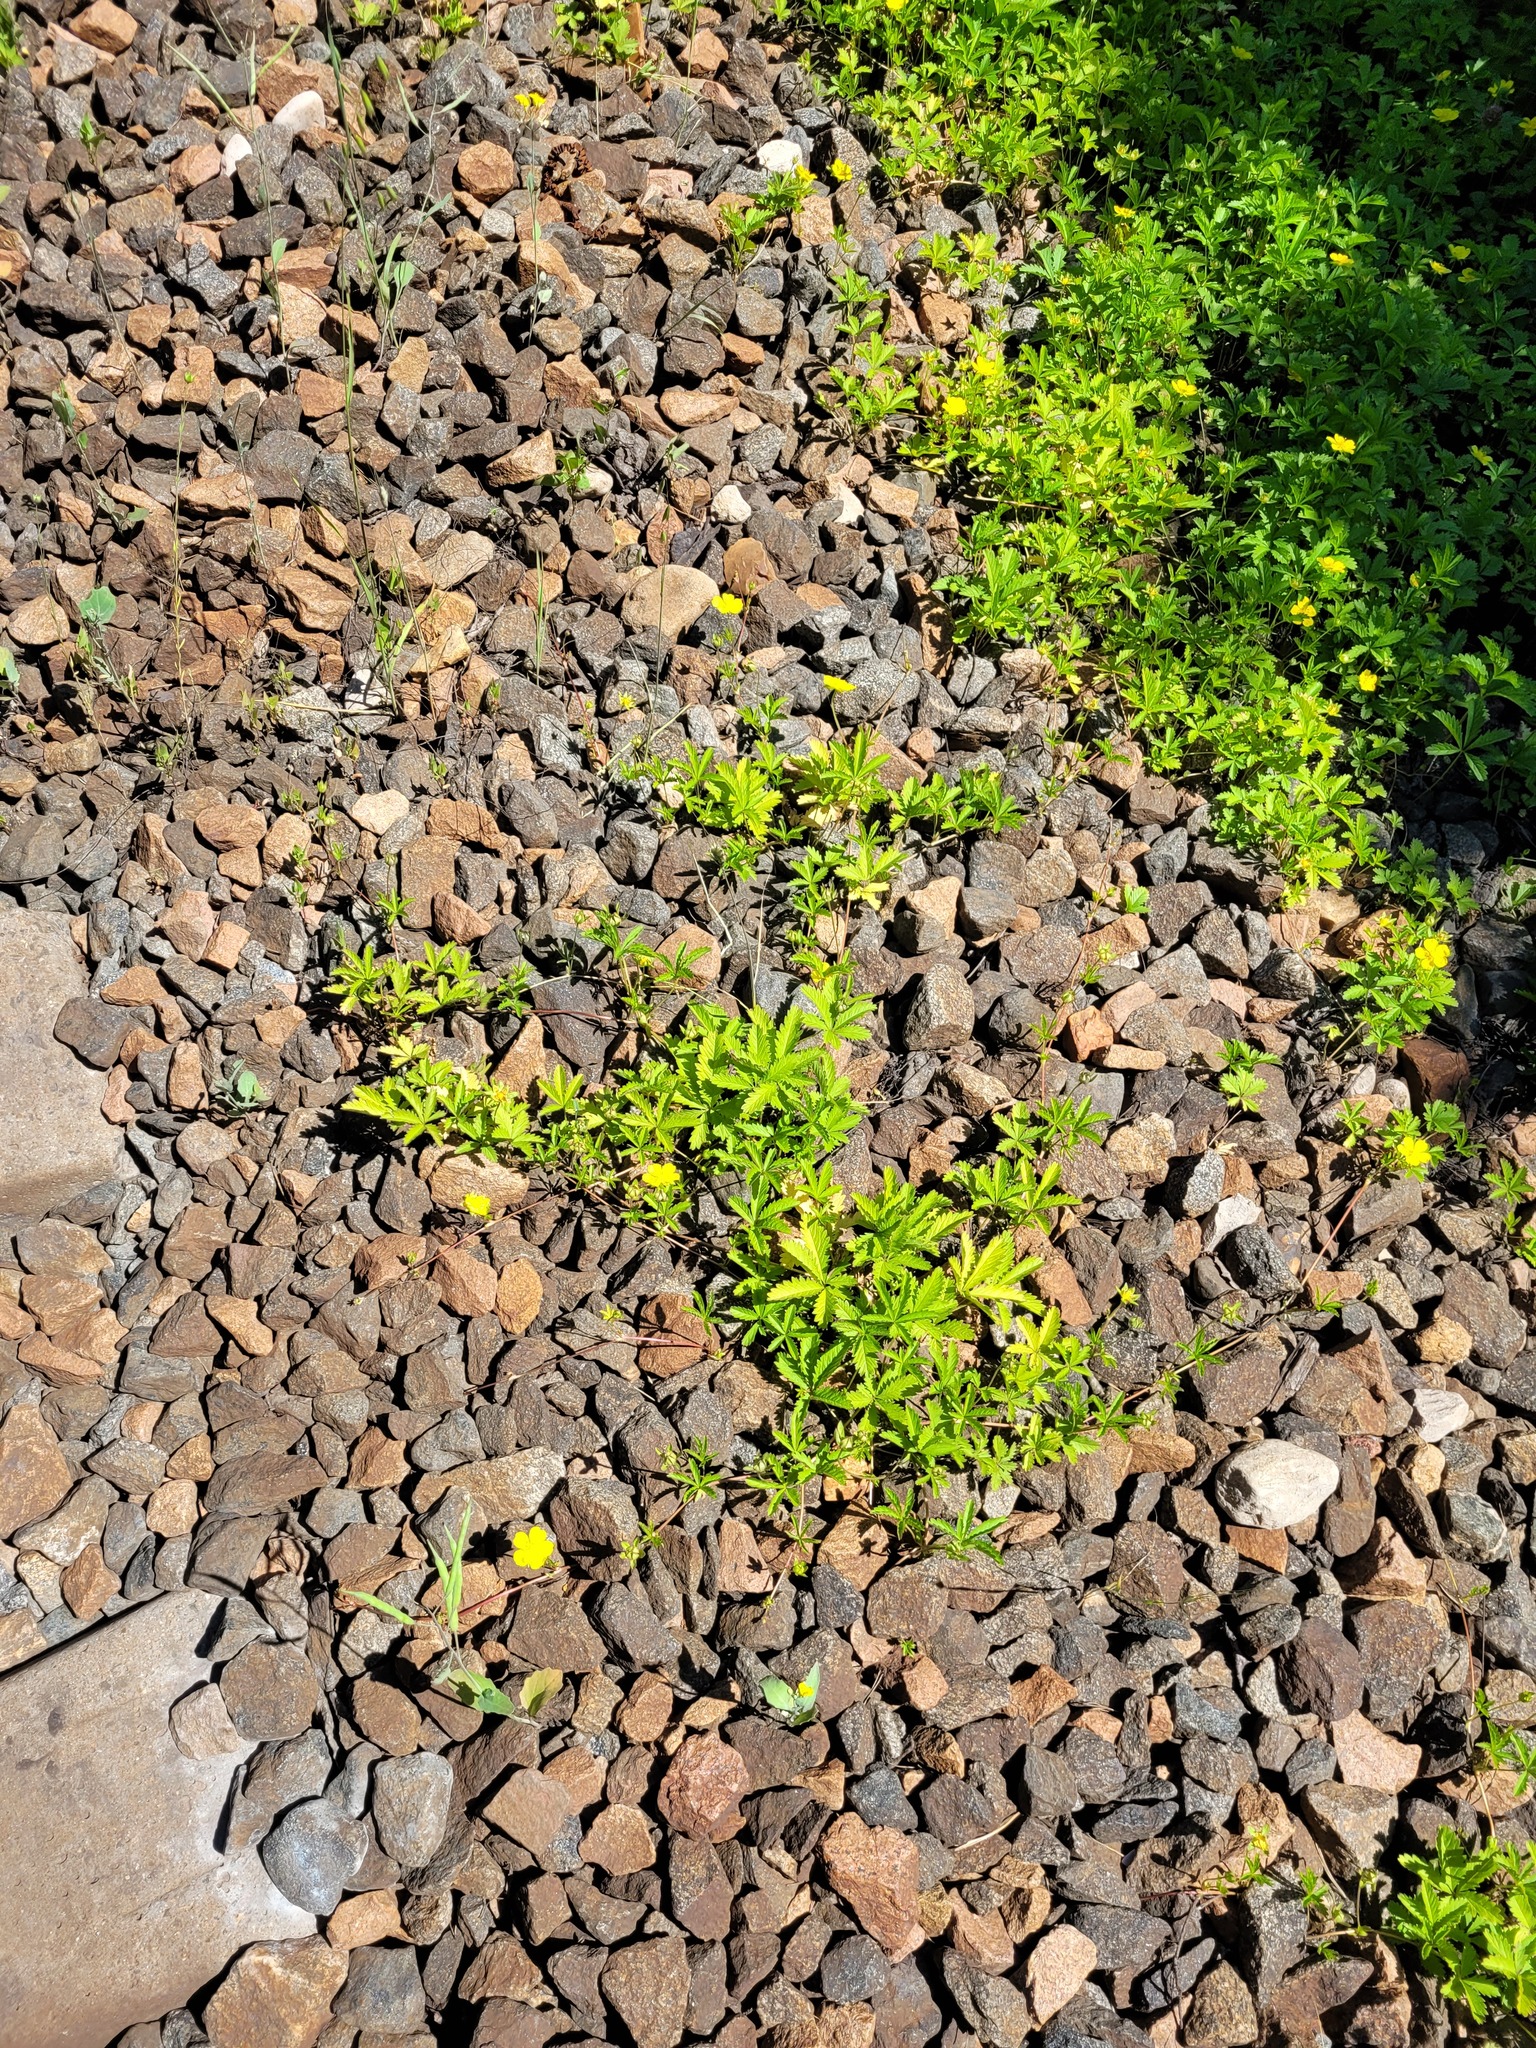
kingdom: Plantae
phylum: Tracheophyta
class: Magnoliopsida
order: Rosales
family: Rosaceae
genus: Potentilla
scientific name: Potentilla reptans
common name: Creeping cinquefoil
